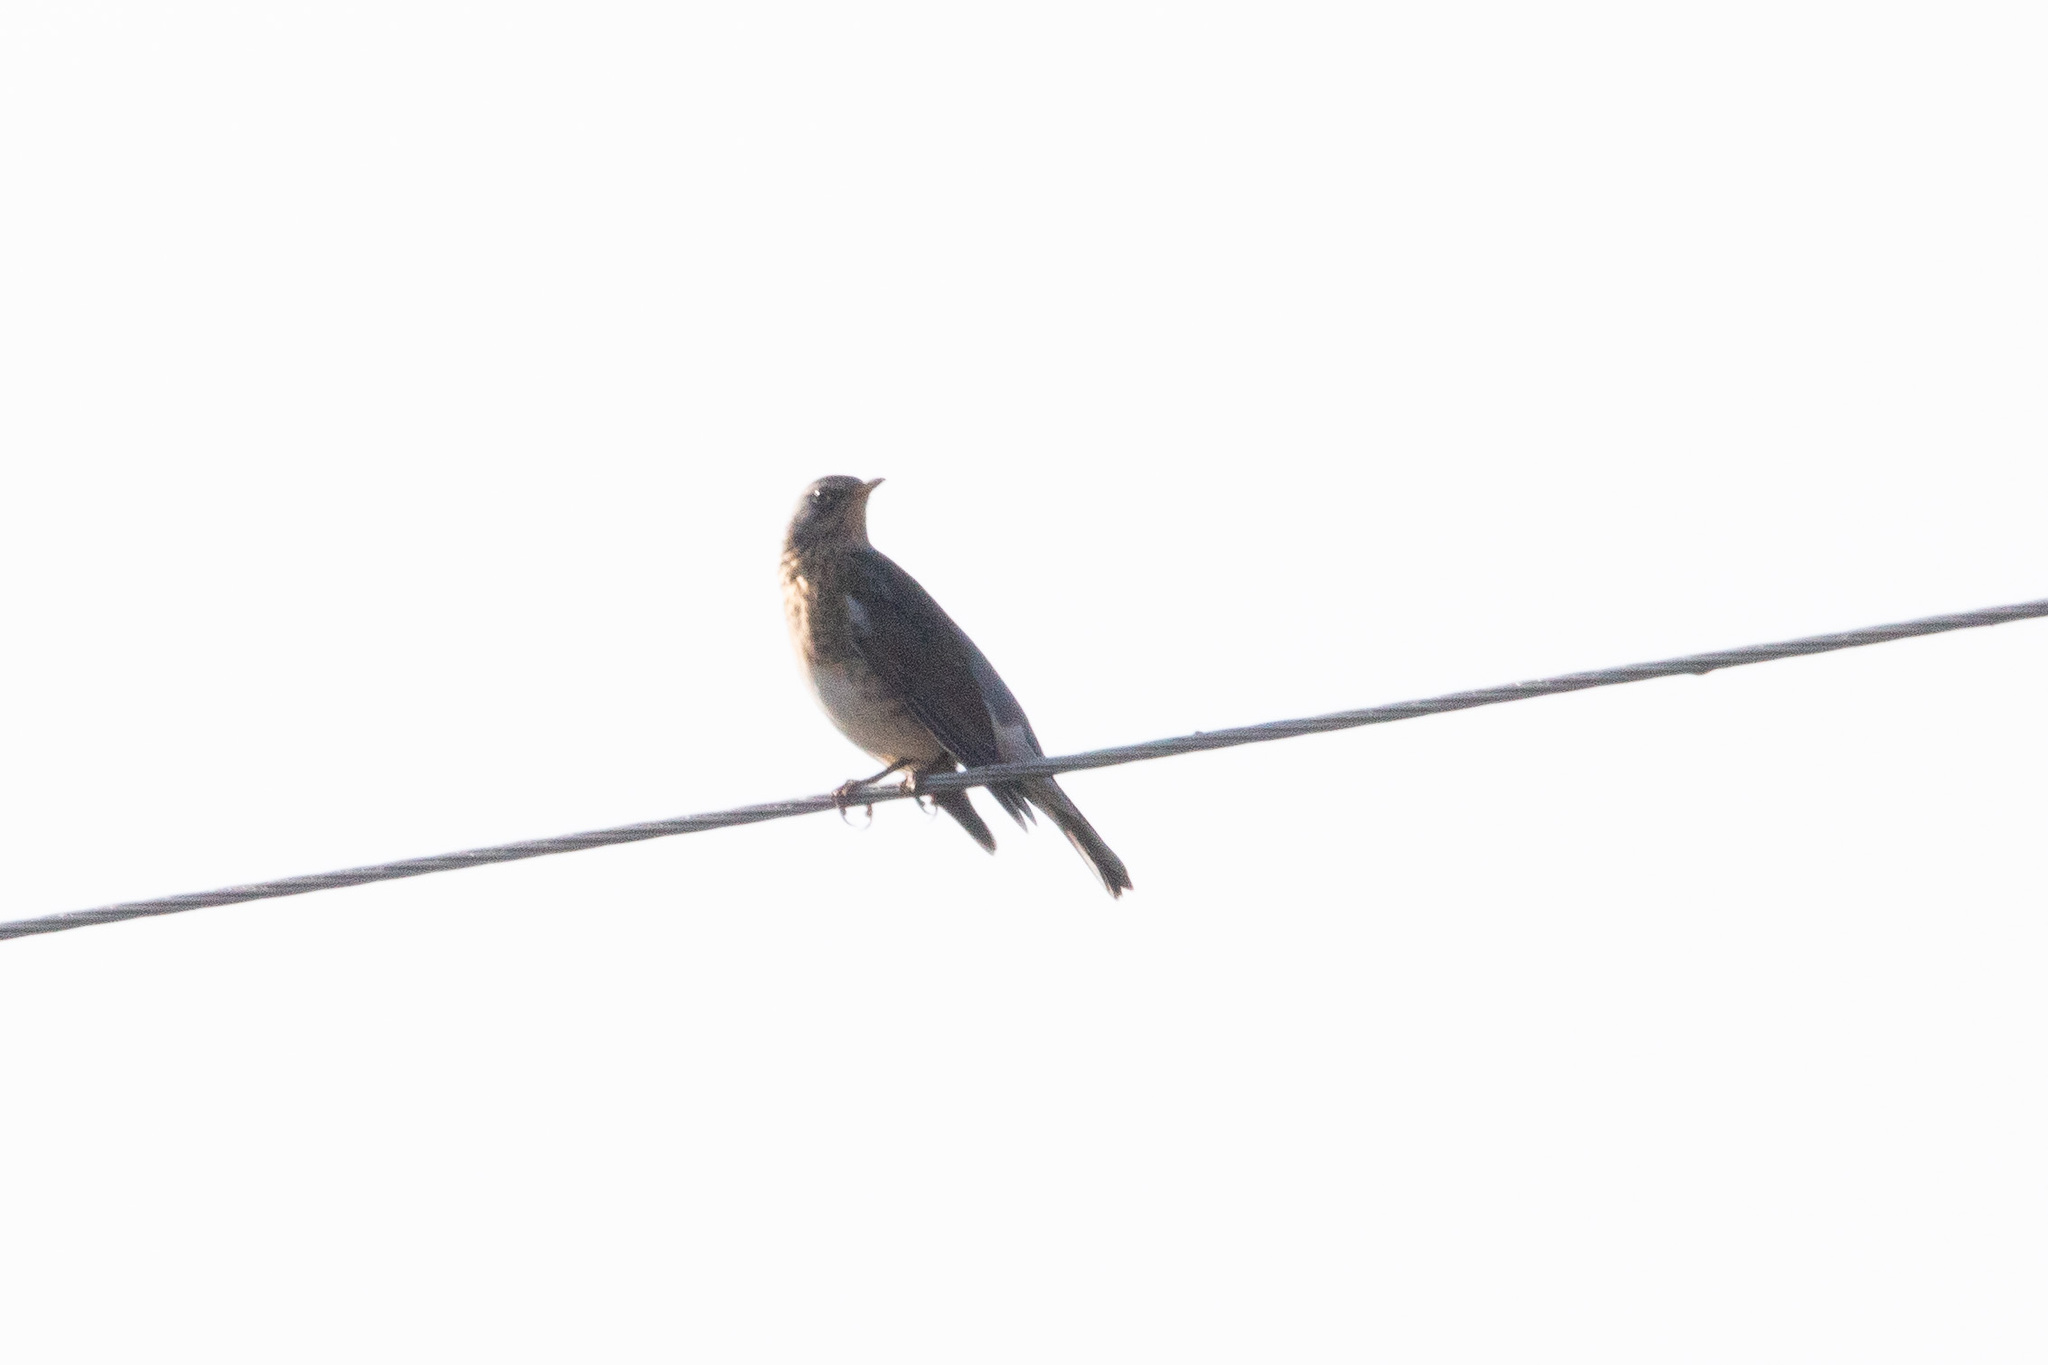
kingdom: Animalia
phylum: Chordata
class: Aves
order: Passeriformes
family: Turdidae
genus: Turdus
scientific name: Turdus pilaris
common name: Fieldfare
